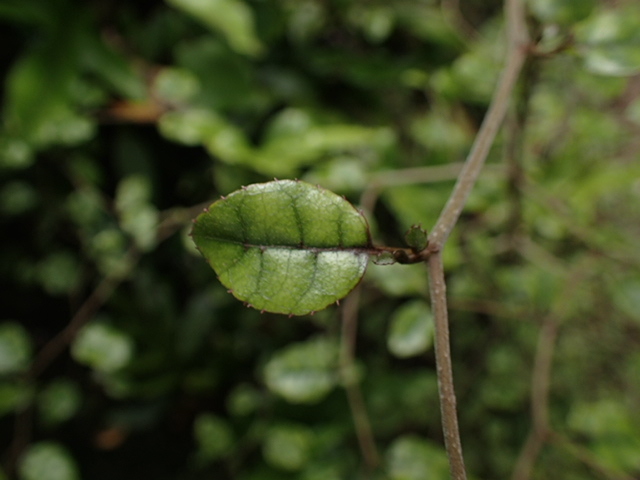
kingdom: Plantae
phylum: Tracheophyta
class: Magnoliopsida
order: Asterales
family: Rousseaceae
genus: Carpodetus
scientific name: Carpodetus serratus
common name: White mapau
